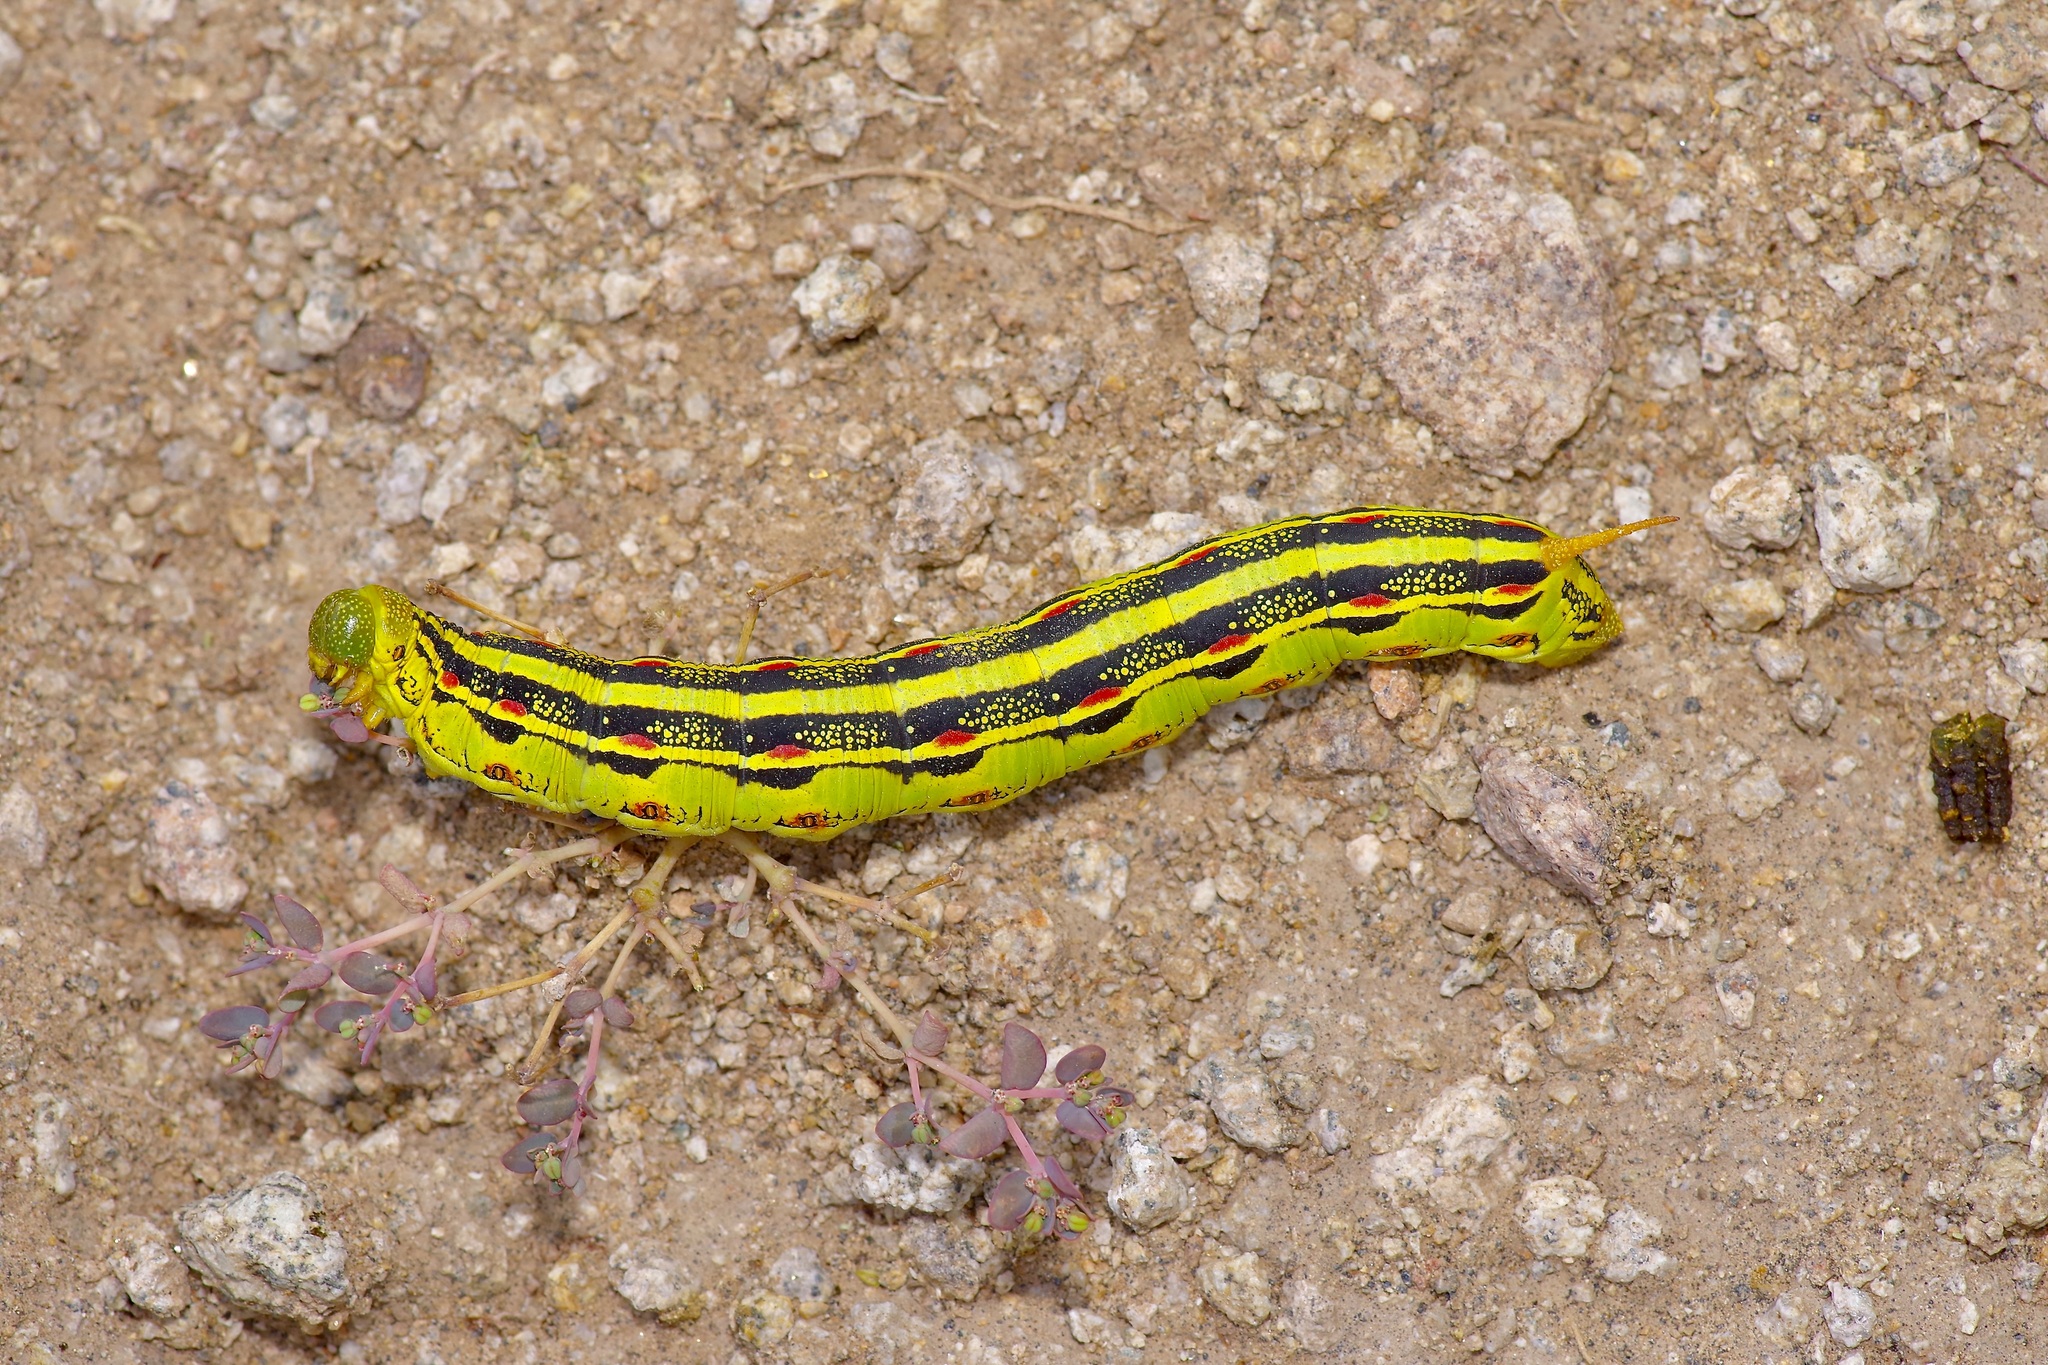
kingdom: Animalia
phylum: Arthropoda
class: Insecta
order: Lepidoptera
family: Sphingidae
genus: Hyles
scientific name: Hyles lineata
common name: White-lined sphinx
